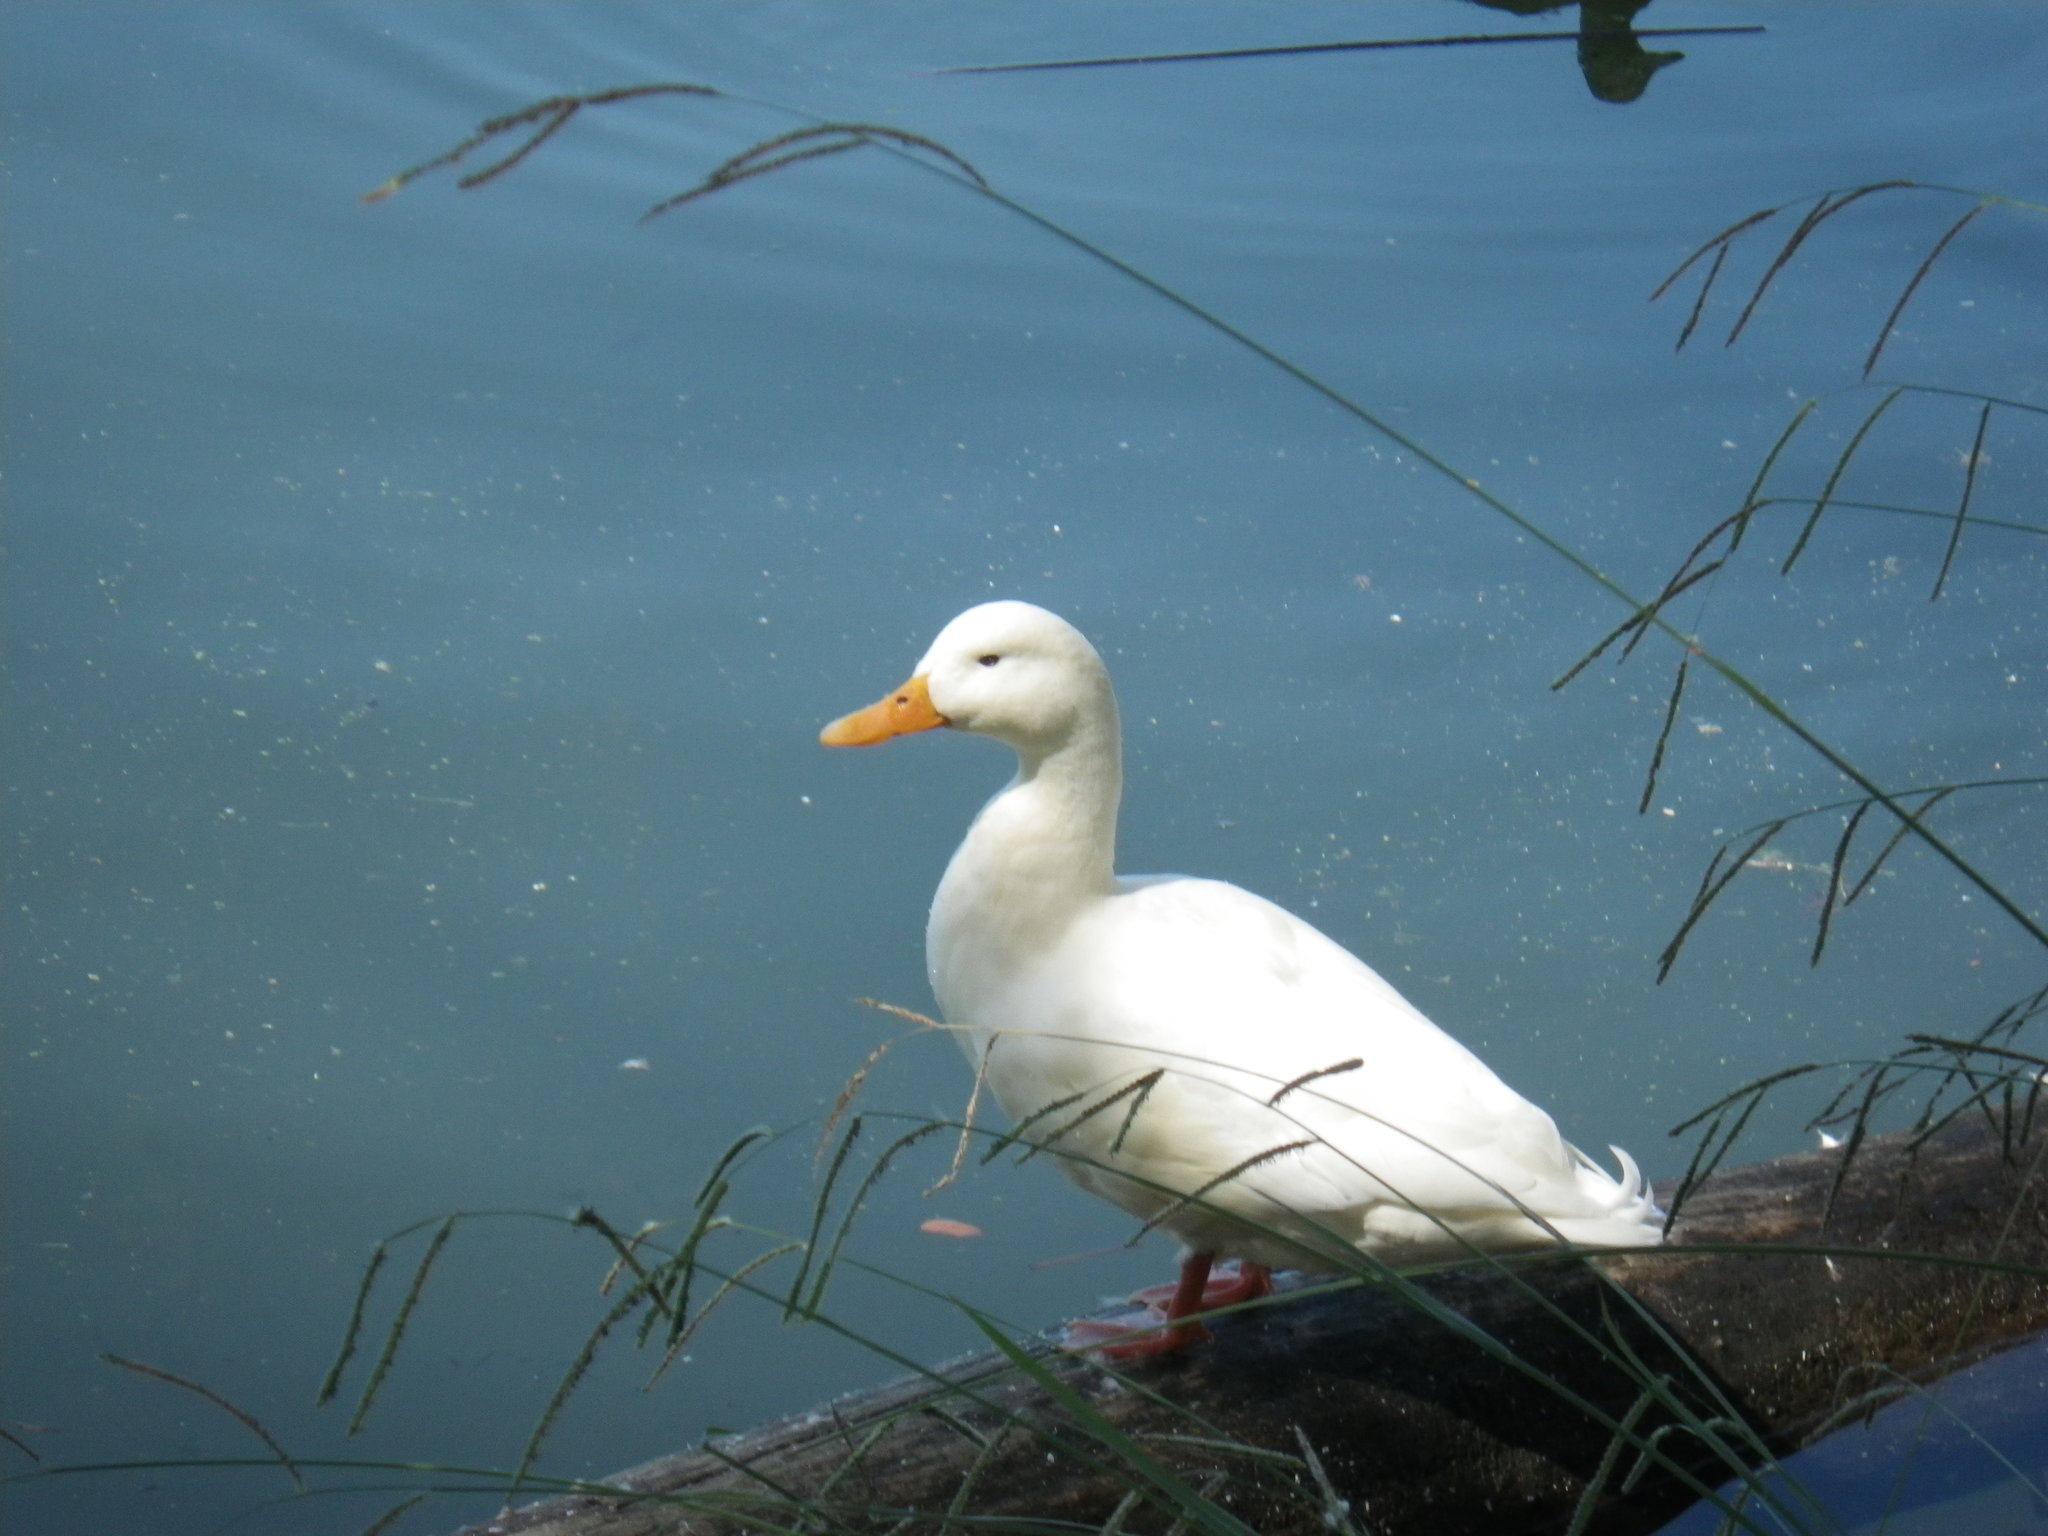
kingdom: Animalia
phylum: Chordata
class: Aves
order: Anseriformes
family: Anatidae
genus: Anas
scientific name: Anas platyrhynchos
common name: Mallard
